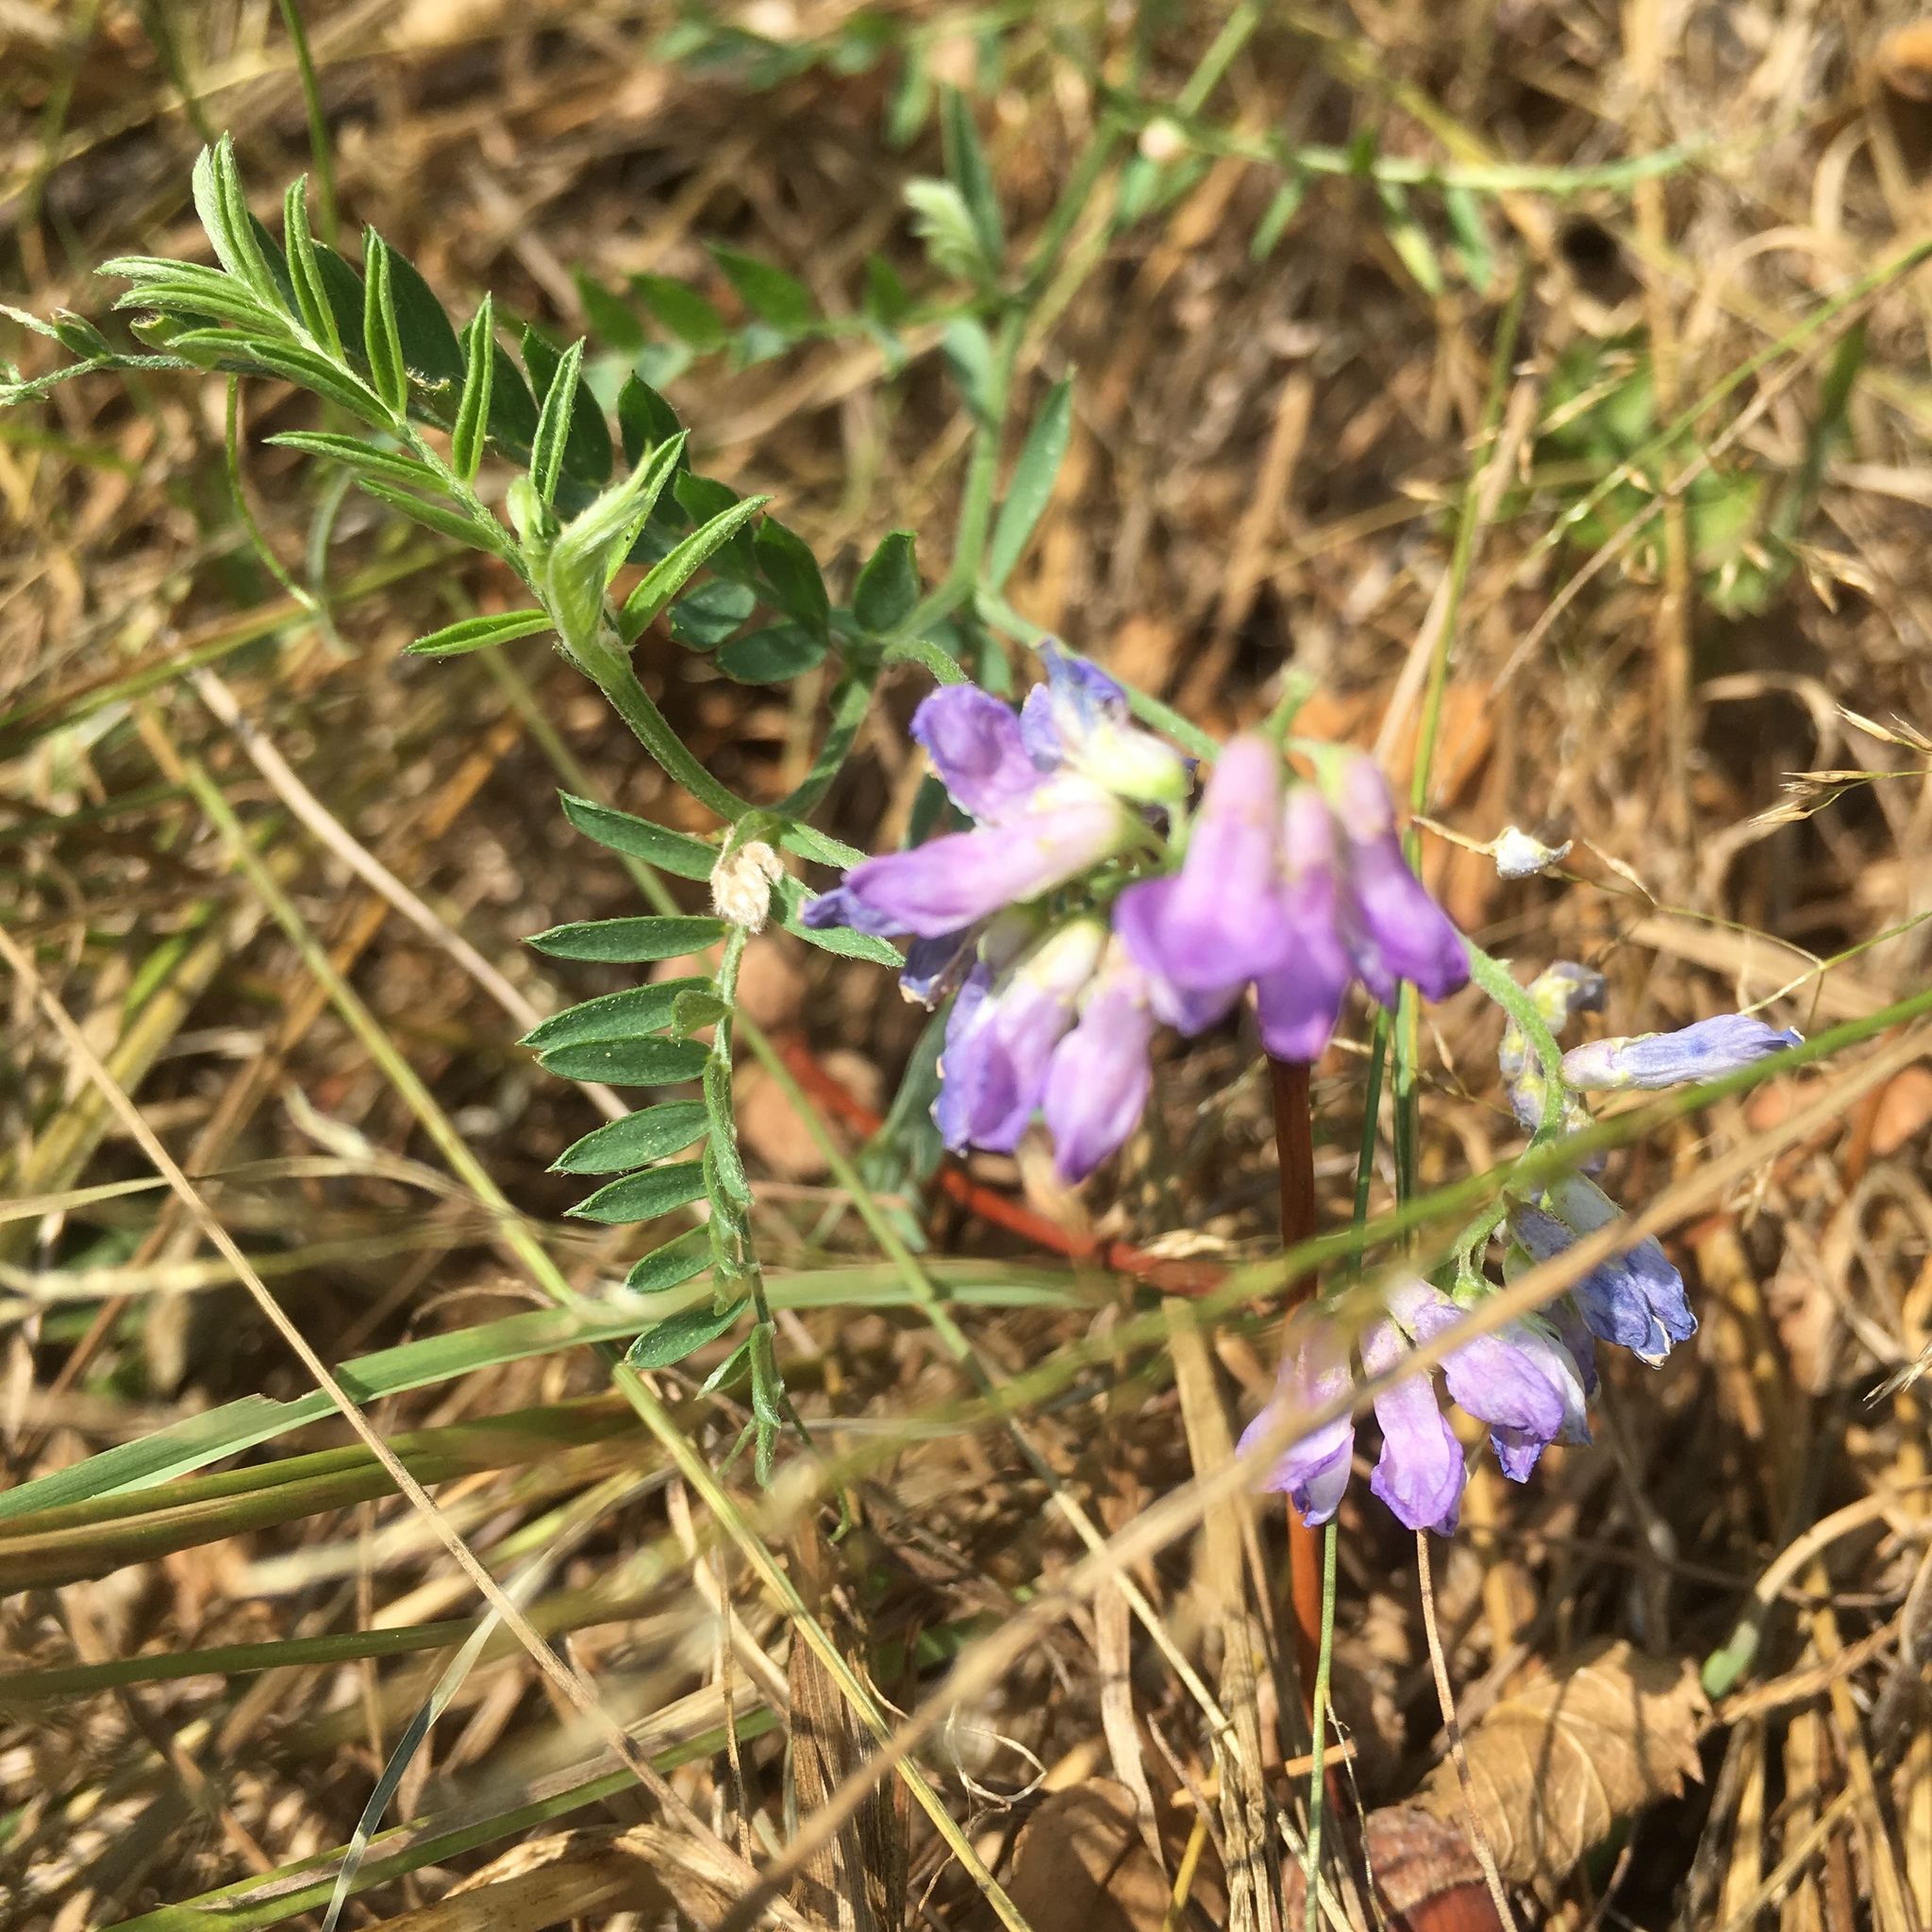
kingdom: Plantae
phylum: Tracheophyta
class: Magnoliopsida
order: Fabales
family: Fabaceae
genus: Vicia
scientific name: Vicia cracca
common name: Bird vetch
